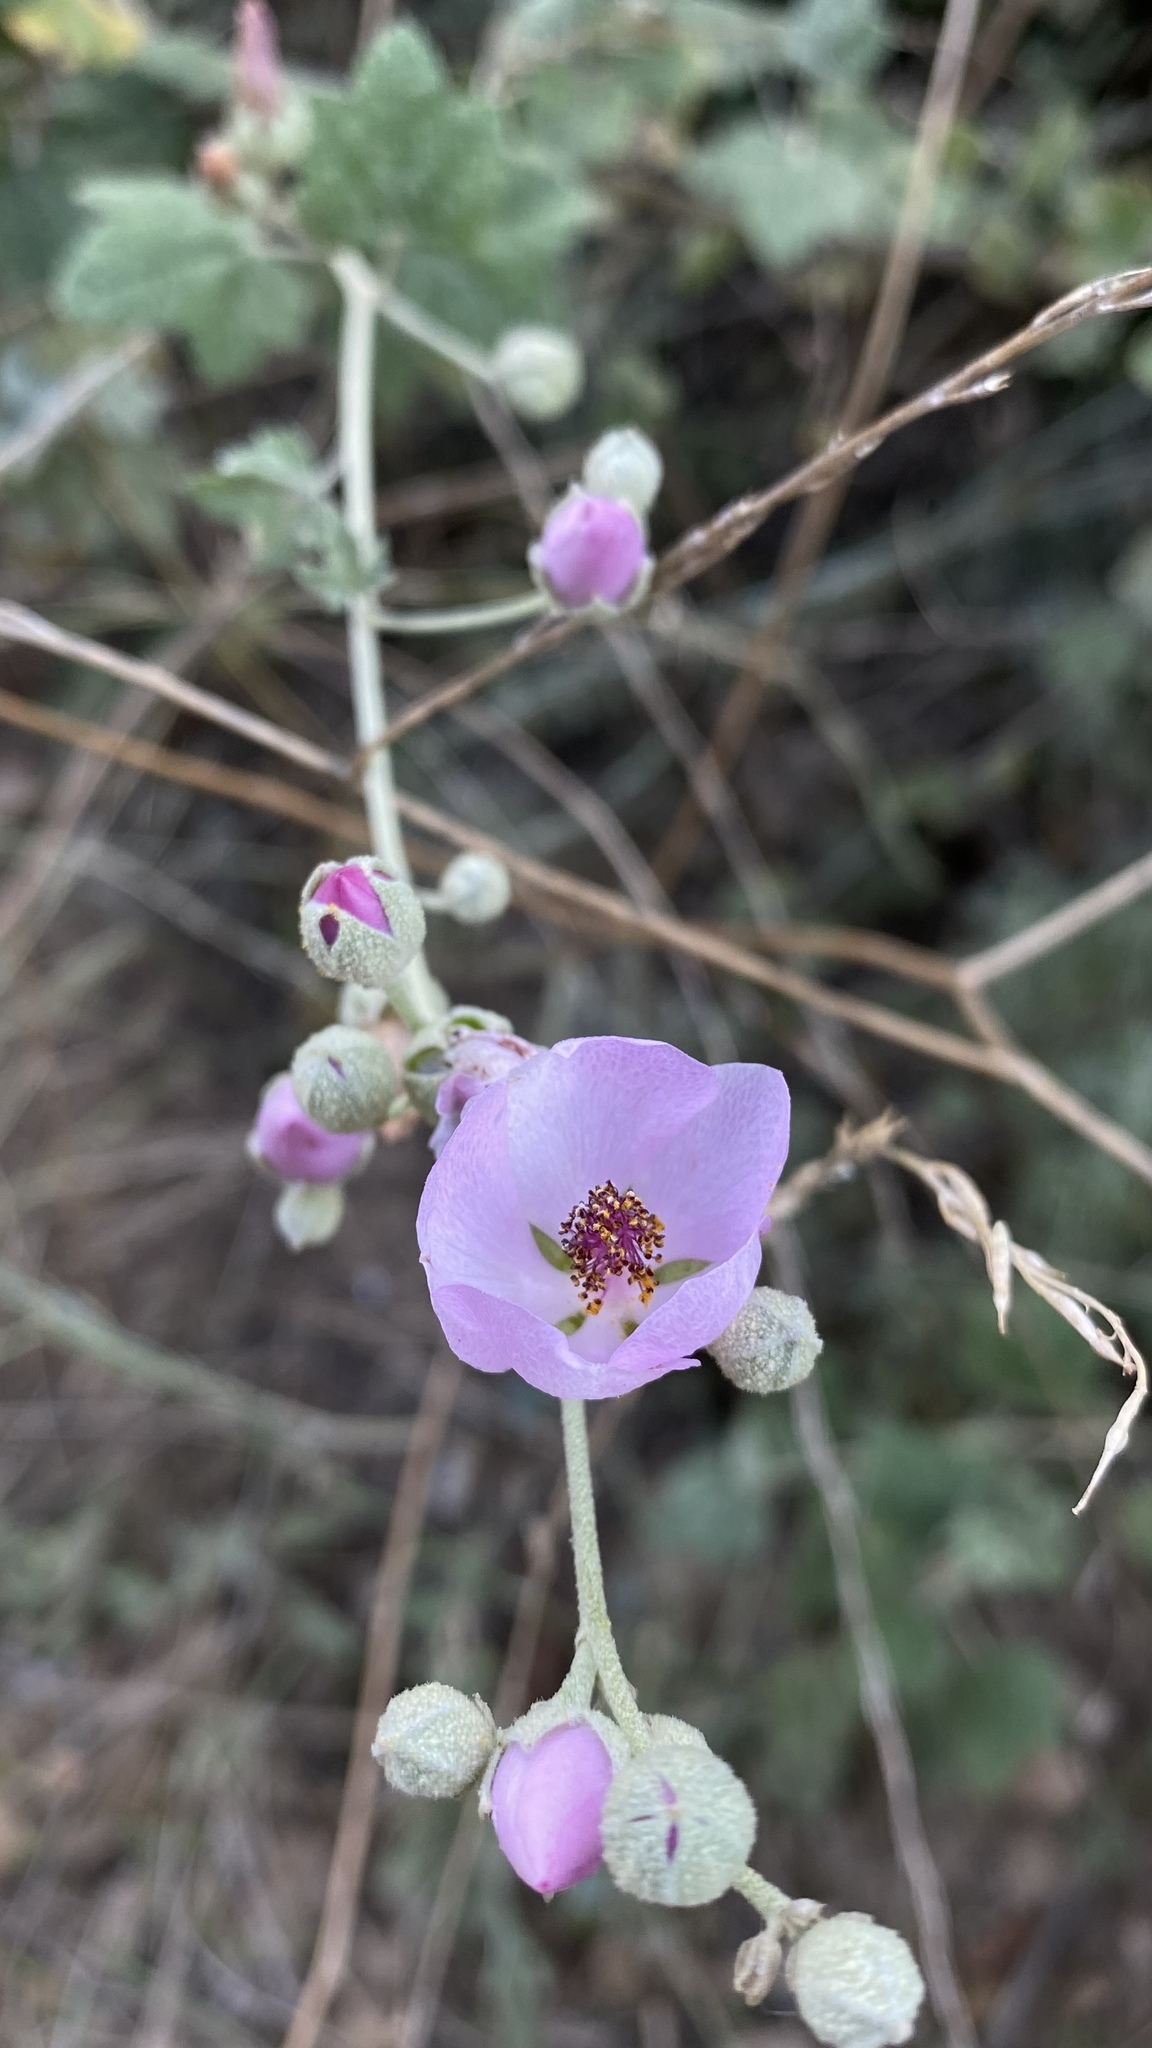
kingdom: Plantae
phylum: Tracheophyta
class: Magnoliopsida
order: Malvales
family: Malvaceae
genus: Malacothamnus
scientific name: Malacothamnus fasciculatus
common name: Sant cruz island bush-mallow
